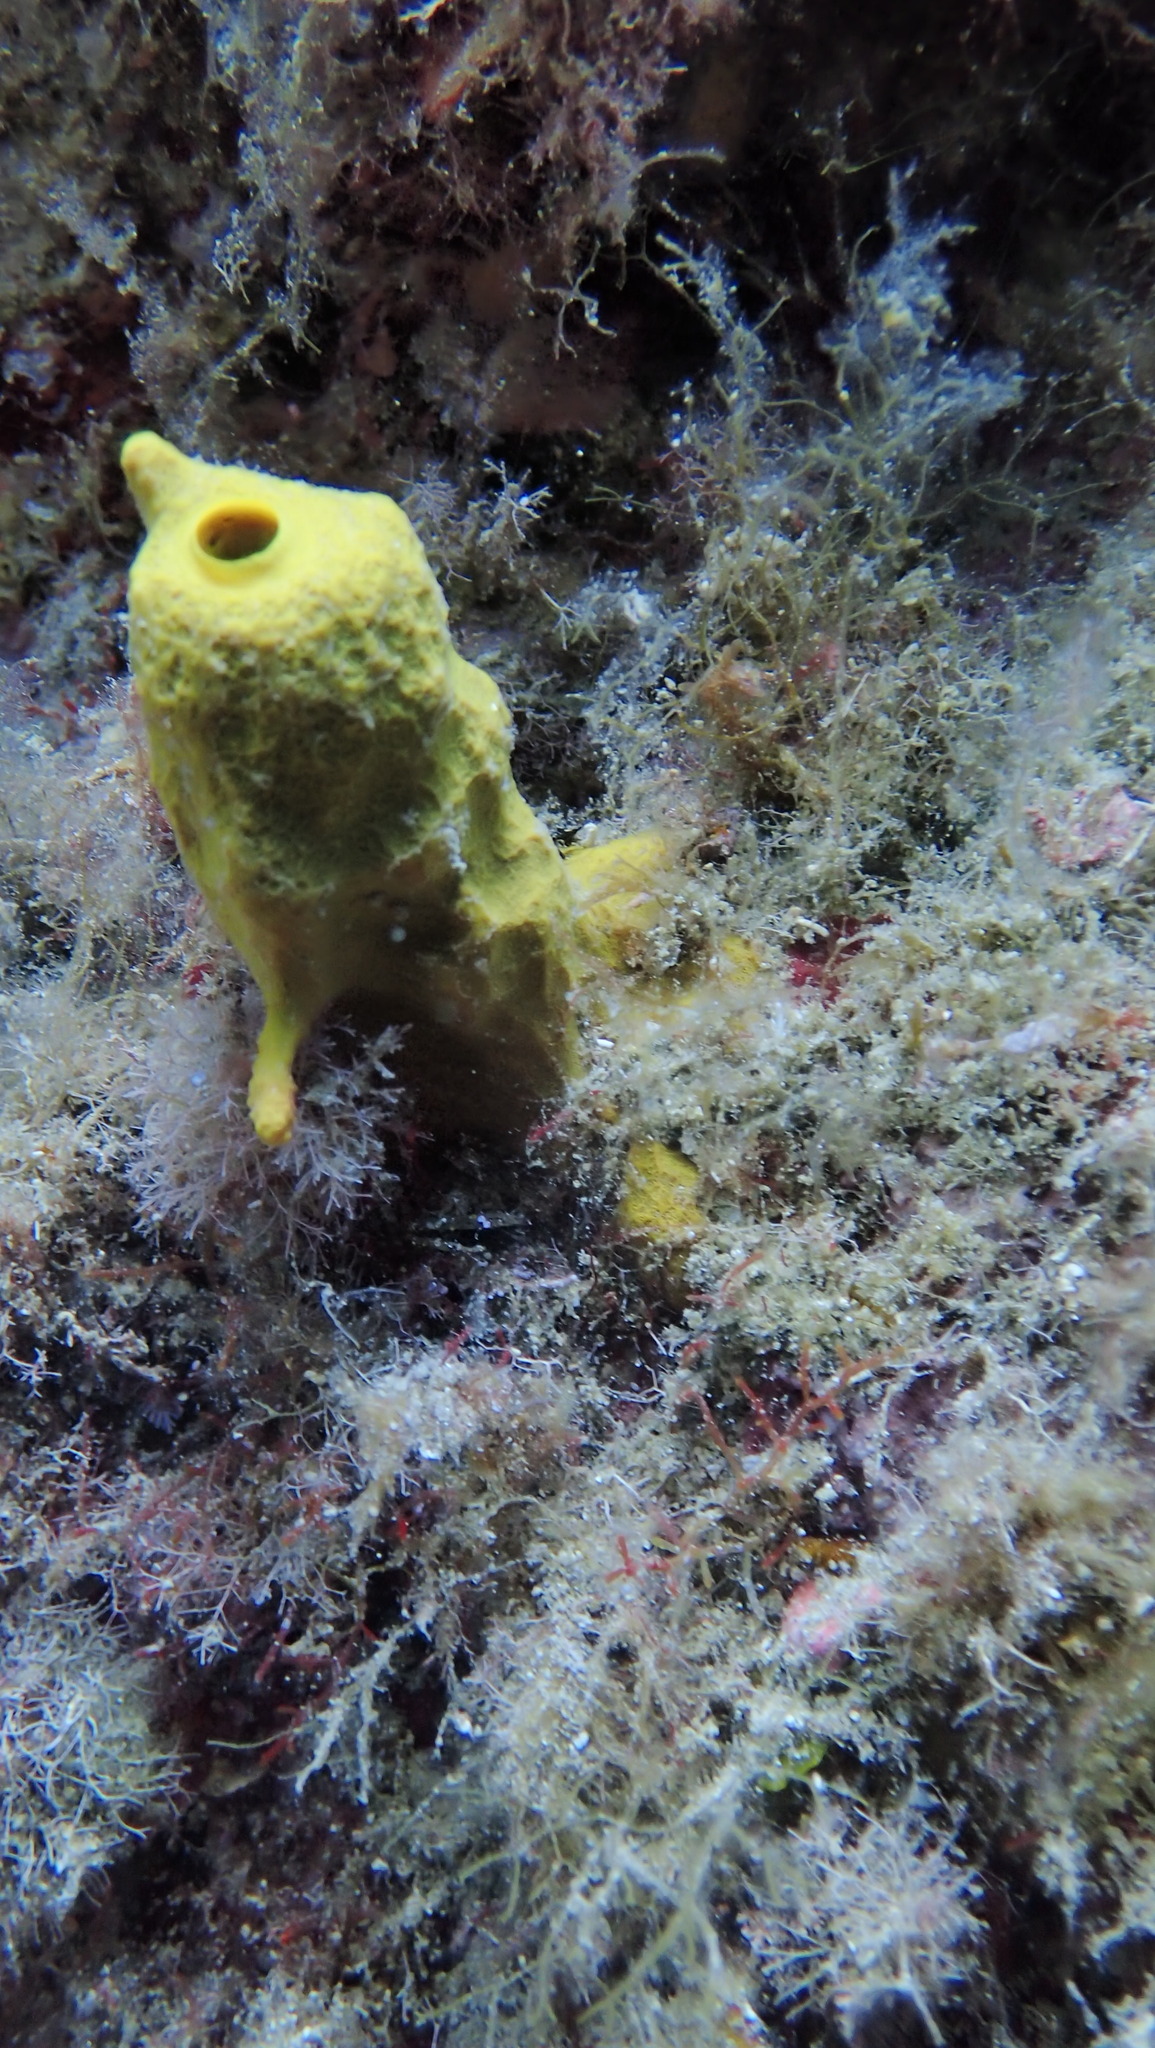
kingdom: Animalia
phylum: Porifera
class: Demospongiae
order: Verongiida
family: Aplysinidae
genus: Aplysina
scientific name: Aplysina aerophoba
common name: Aureate sponge
